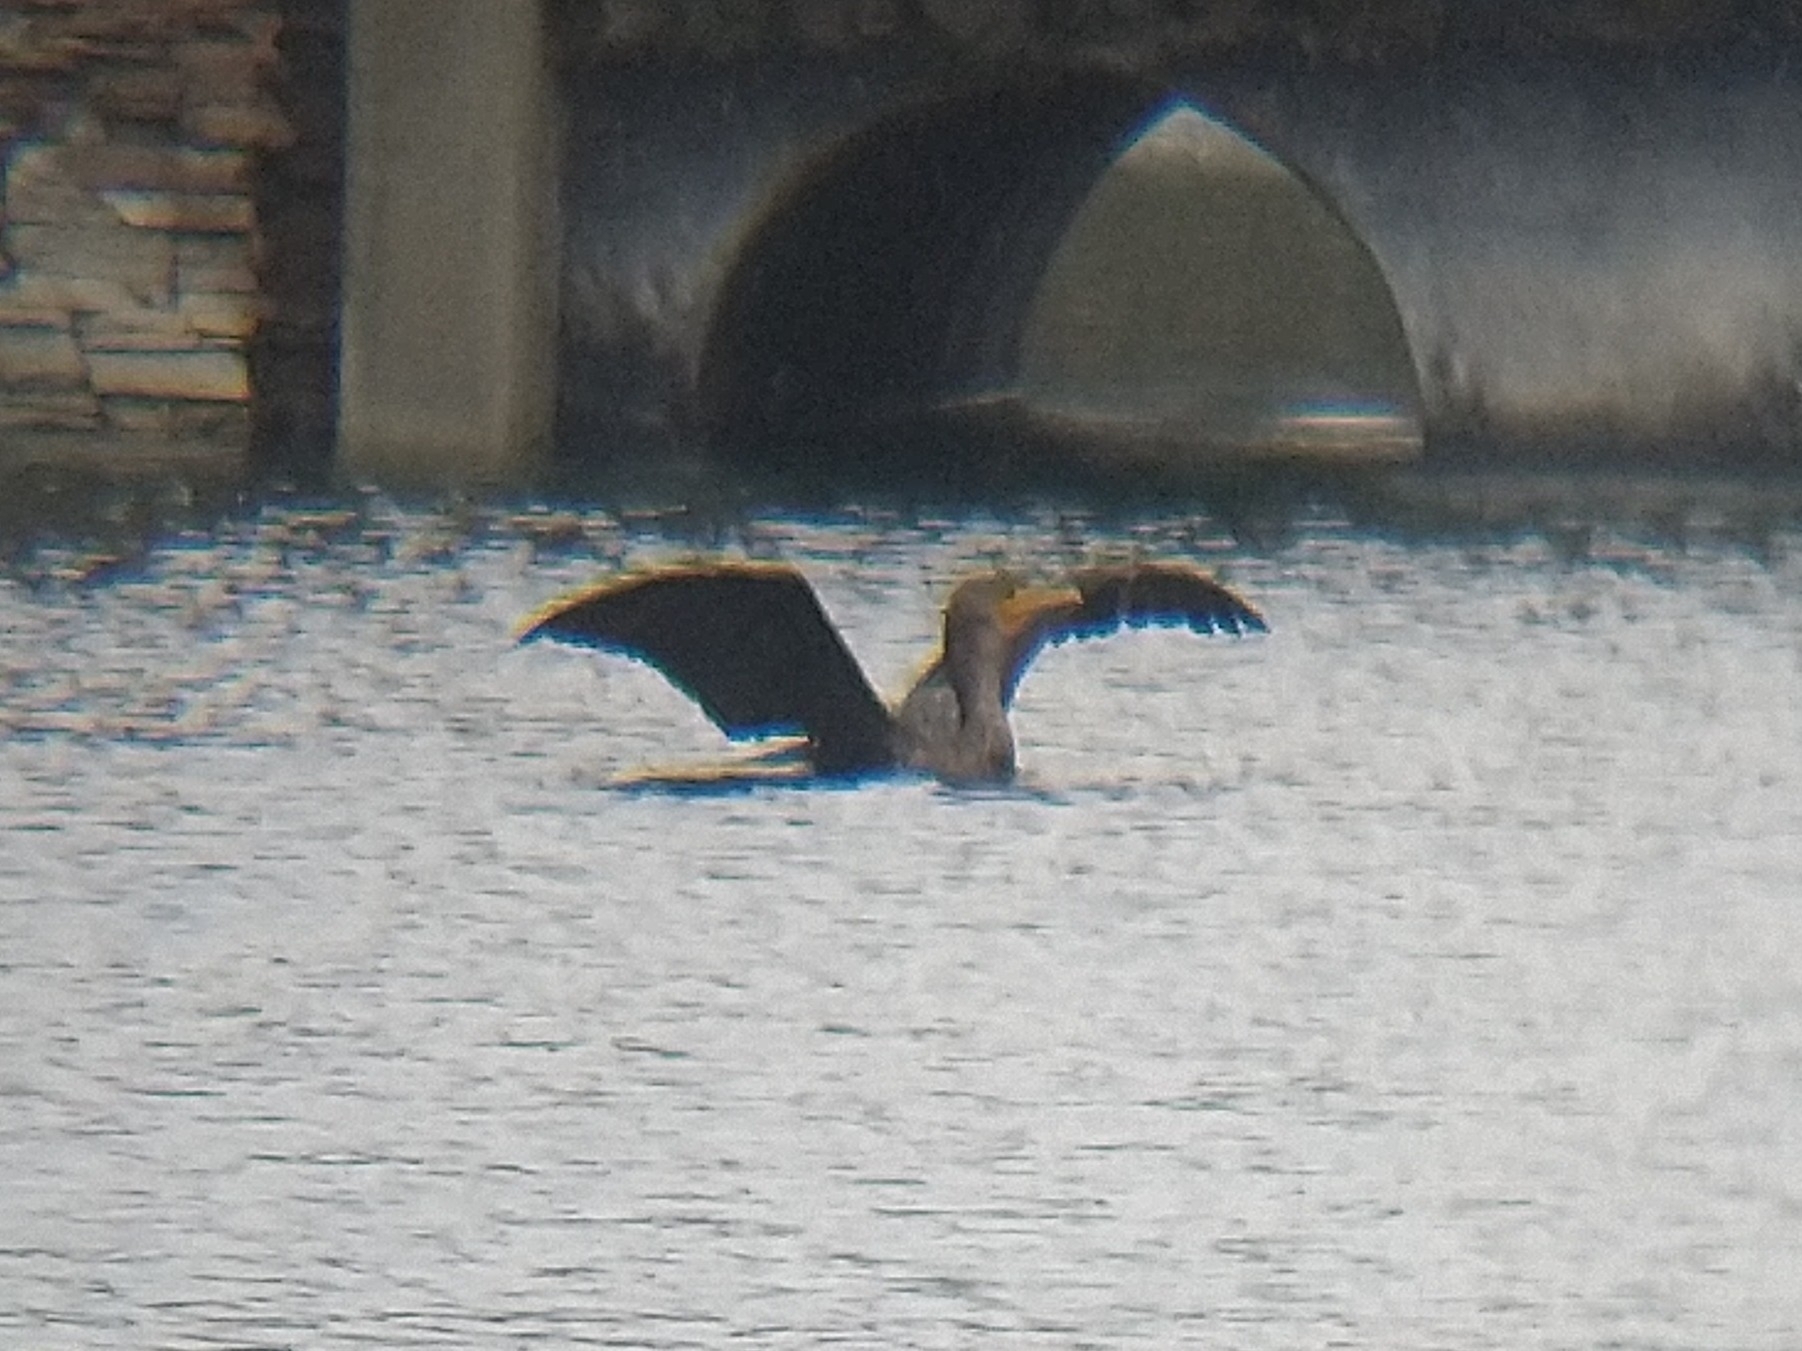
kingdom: Animalia
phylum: Chordata
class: Aves
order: Suliformes
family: Phalacrocoracidae
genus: Phalacrocorax
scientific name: Phalacrocorax auritus
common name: Double-crested cormorant
